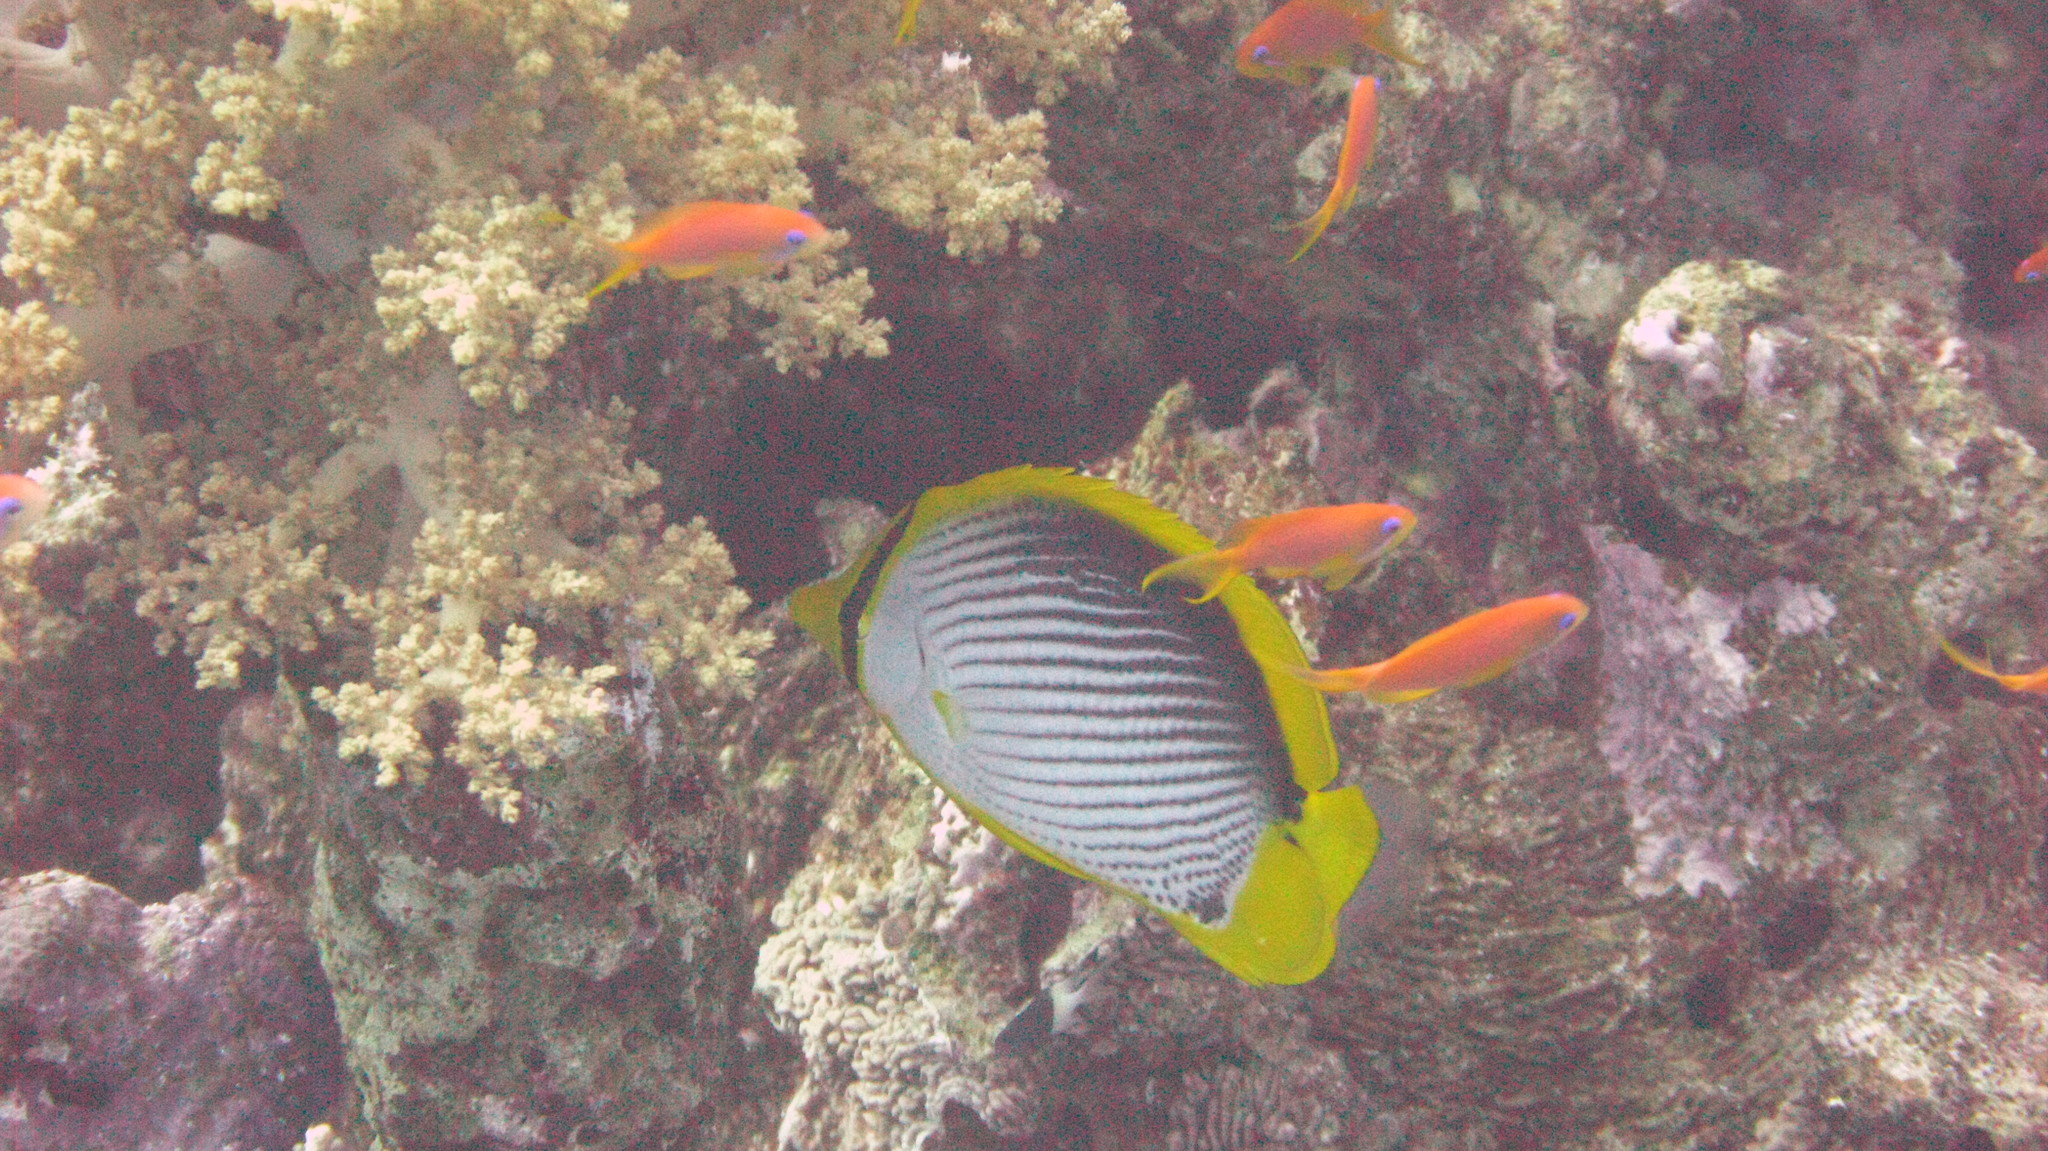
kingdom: Animalia
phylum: Chordata
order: Perciformes
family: Chaetodontidae
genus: Chaetodon
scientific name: Chaetodon melannotus
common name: Blackback butterflyfish
